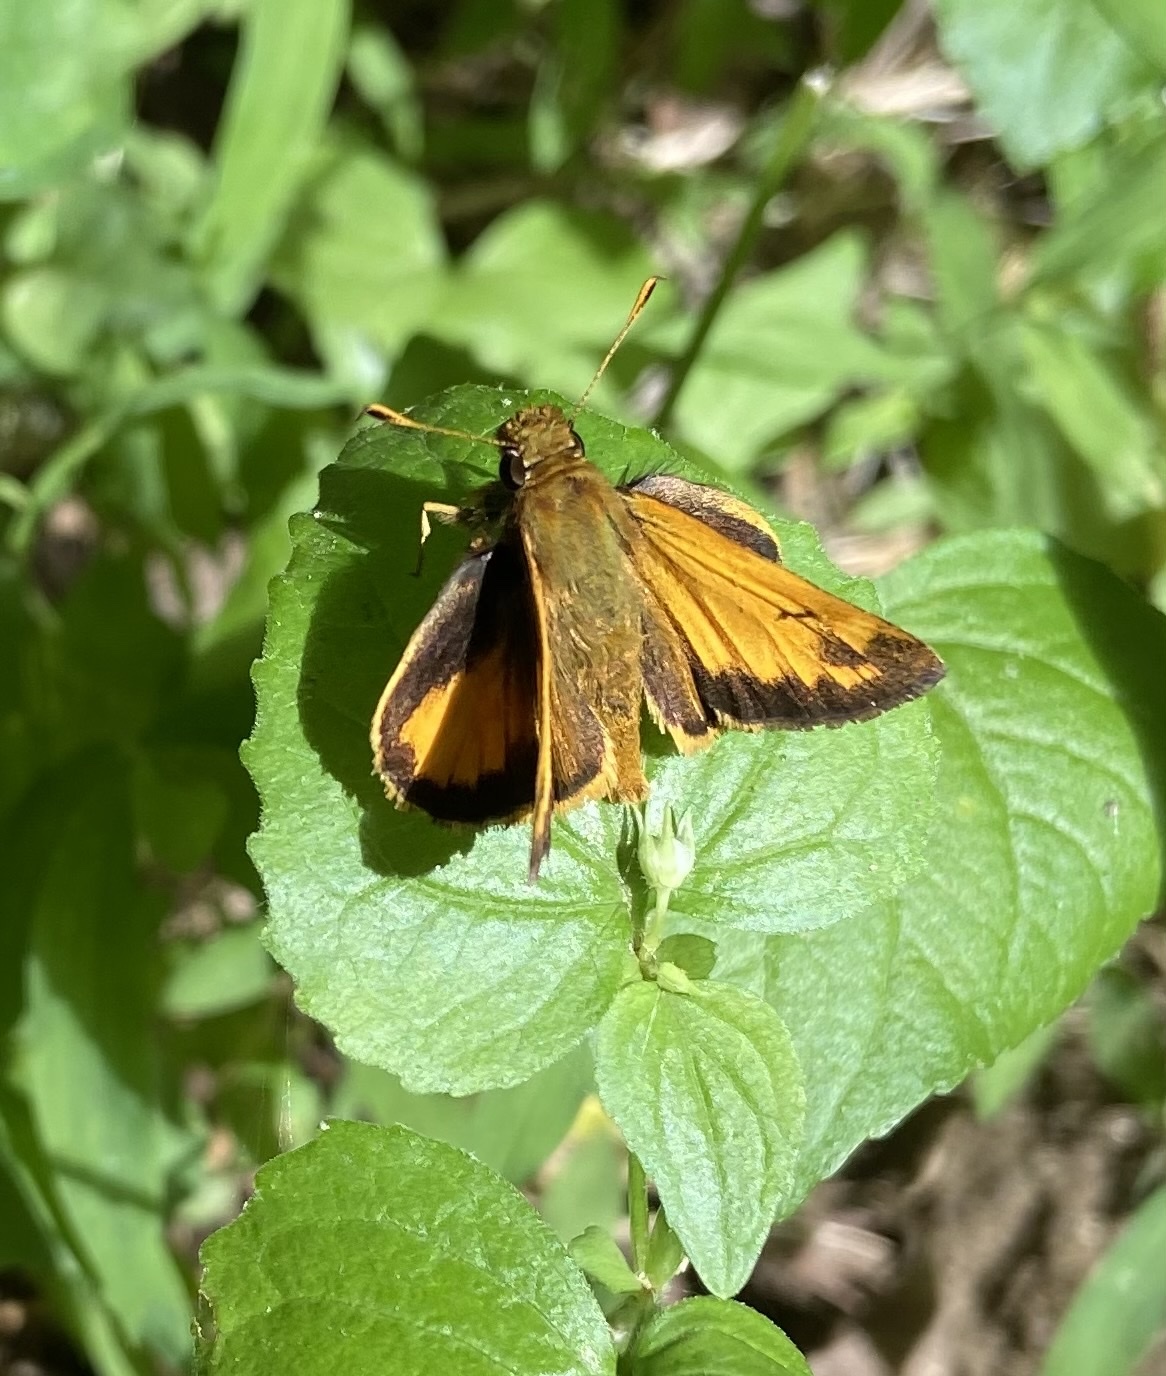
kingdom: Animalia
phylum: Arthropoda
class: Insecta
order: Lepidoptera
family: Hesperiidae
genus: Lon
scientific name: Lon zabulon
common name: Zabulon skipper
